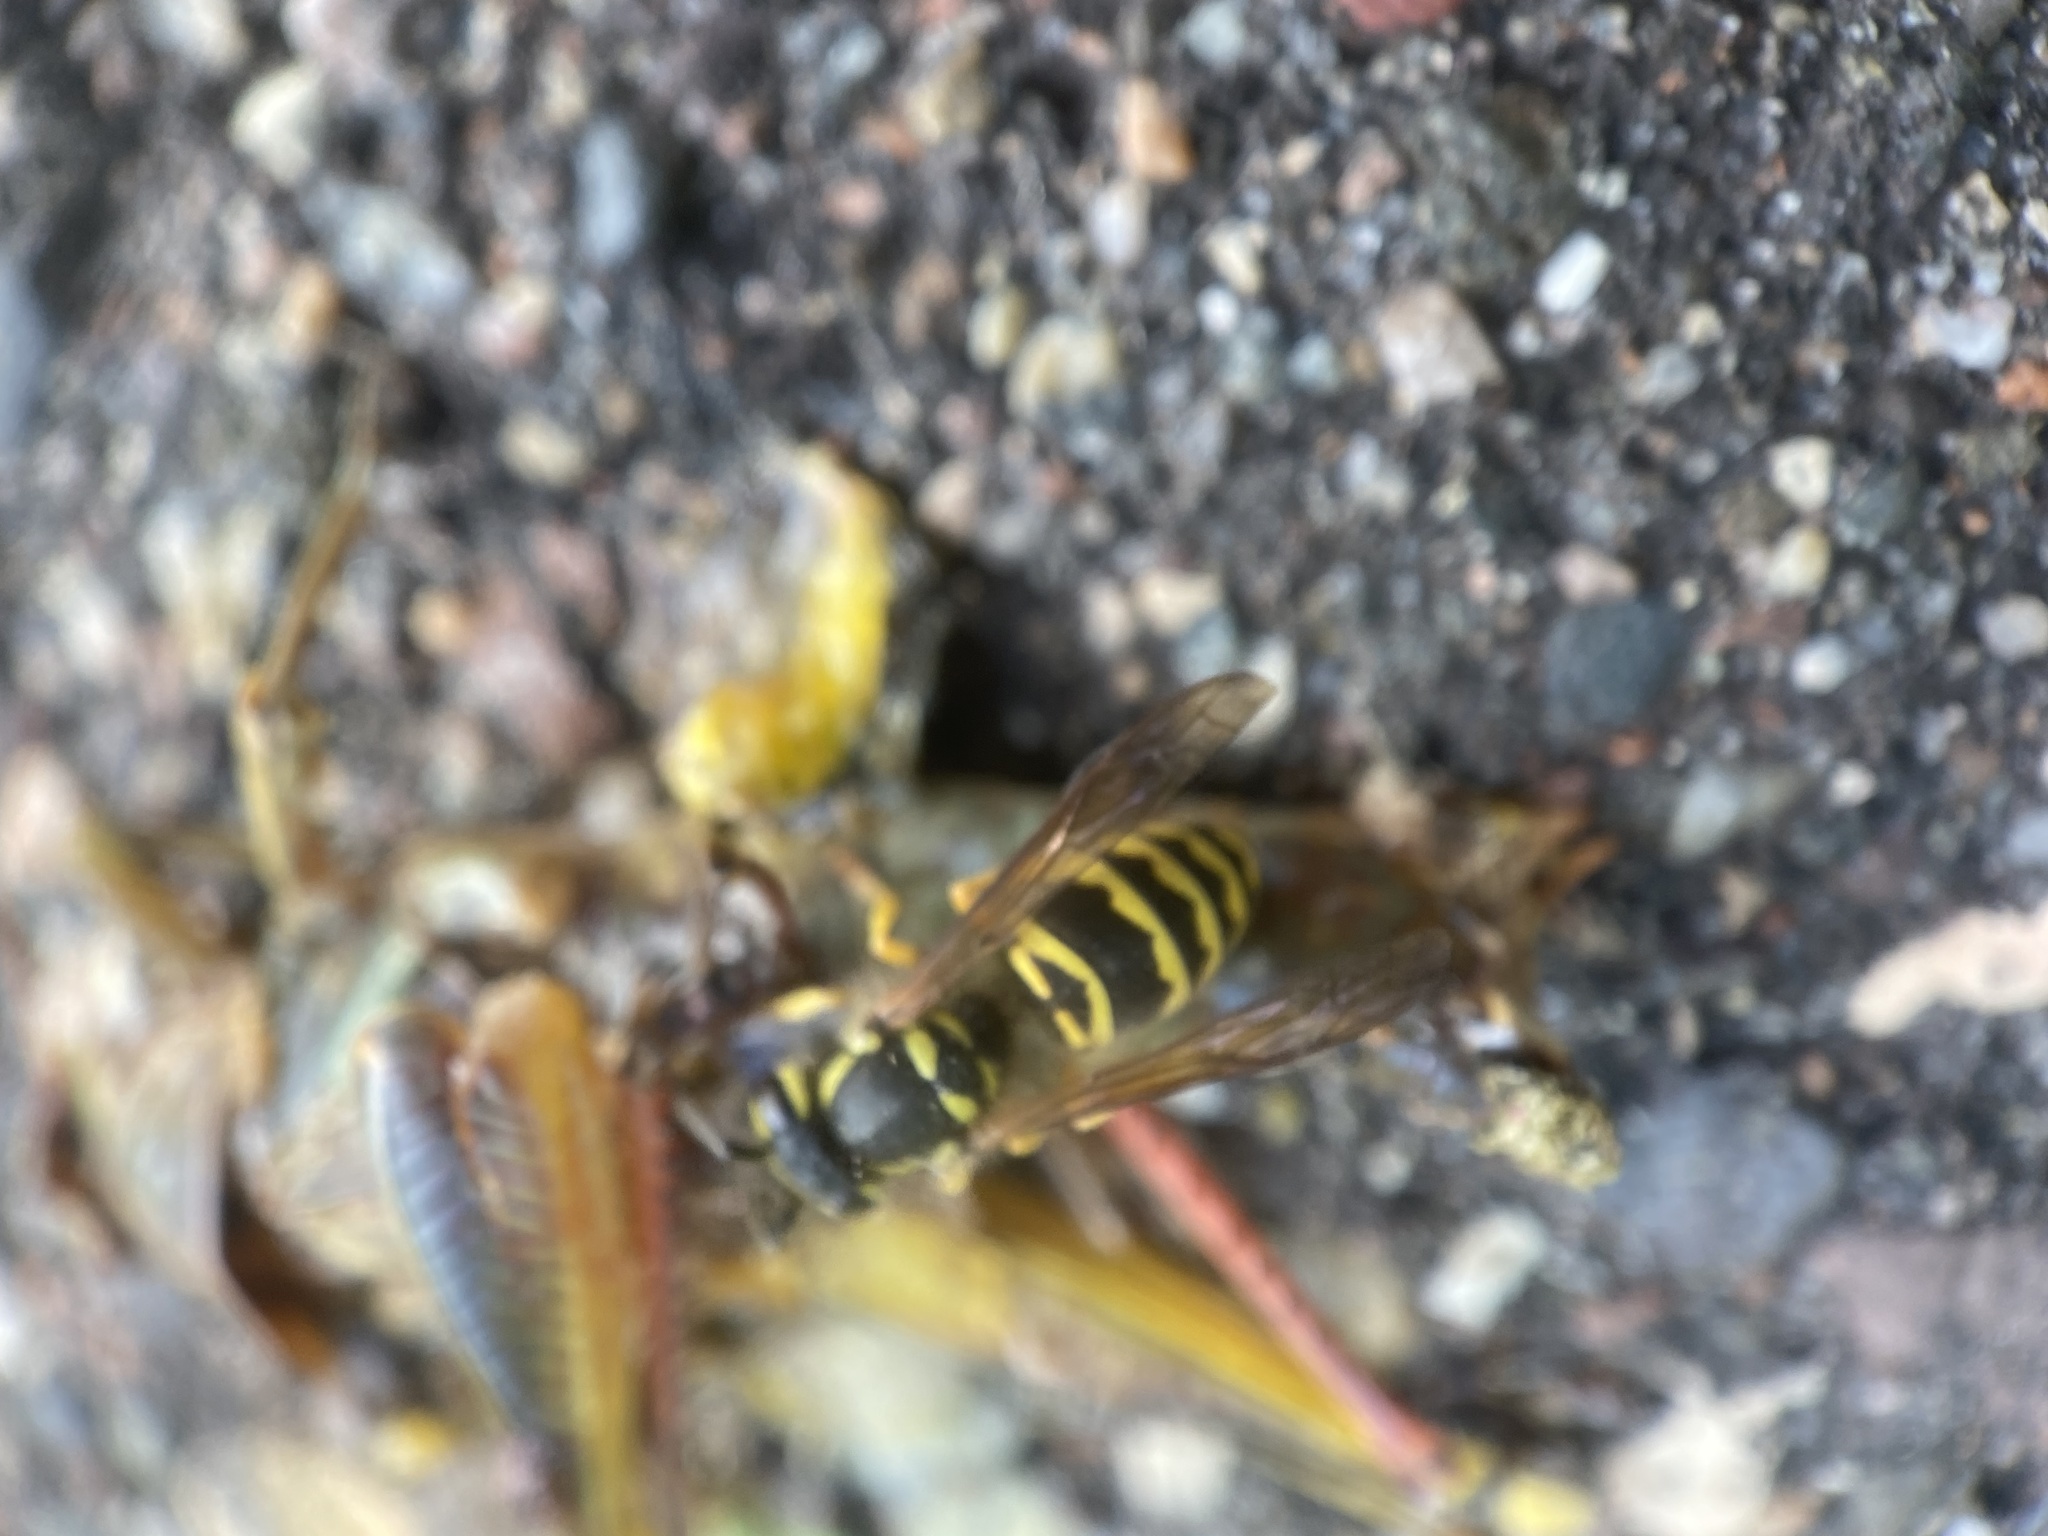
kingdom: Animalia
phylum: Arthropoda
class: Insecta
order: Hymenoptera
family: Vespidae
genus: Vespula
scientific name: Vespula maculifrons
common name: Eastern yellowjacket
